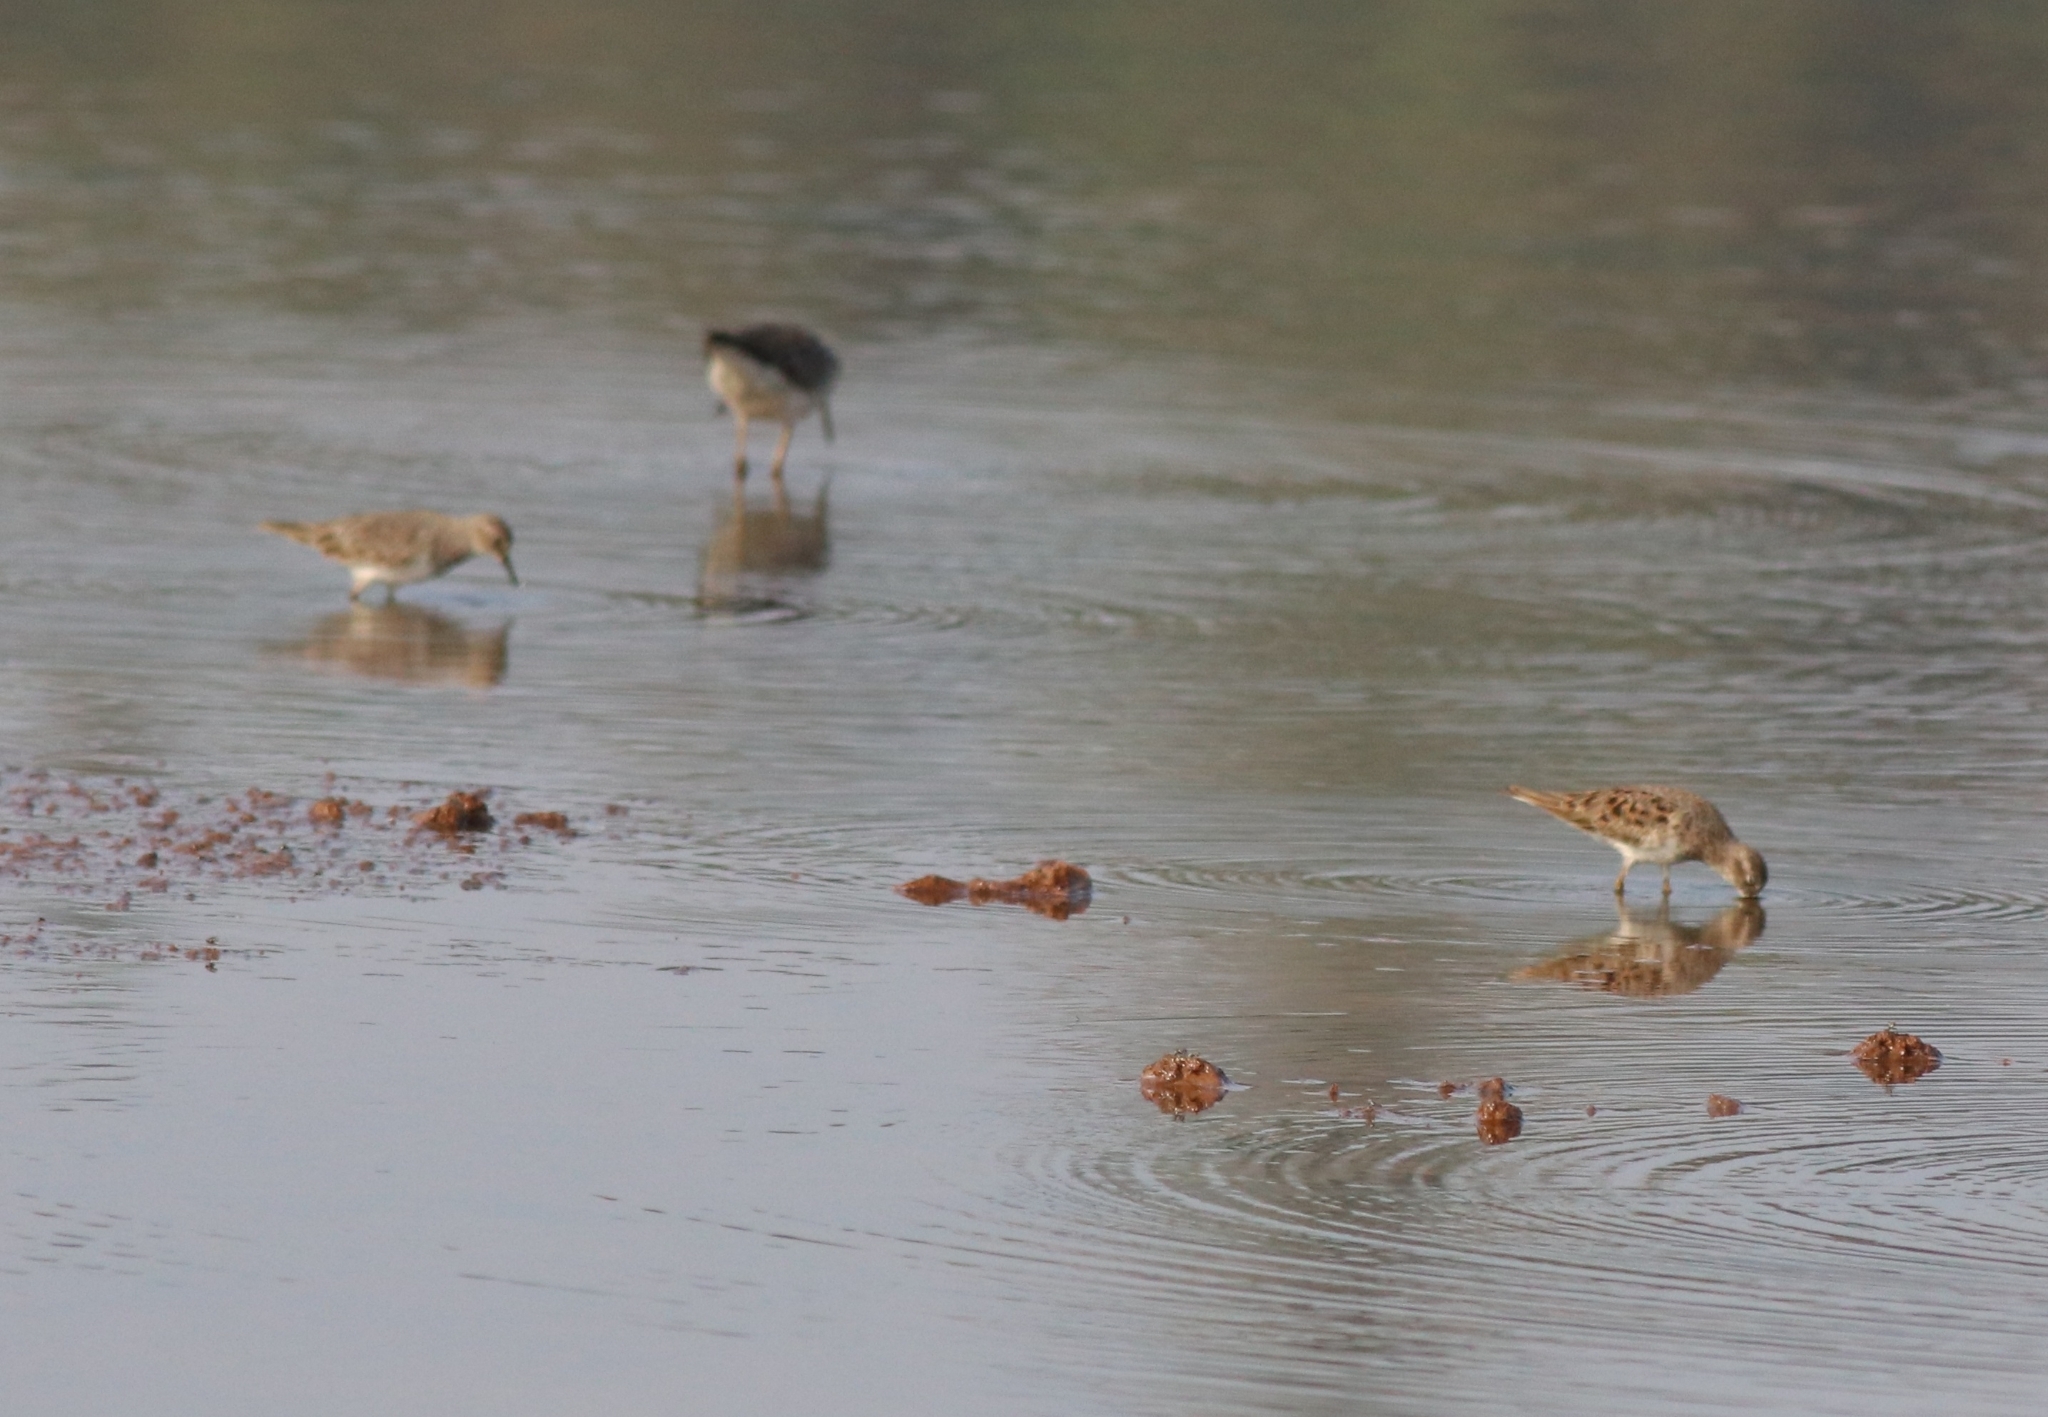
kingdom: Animalia
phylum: Chordata
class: Aves
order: Charadriiformes
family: Scolopacidae
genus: Calidris
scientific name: Calidris temminckii
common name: Temminck's stint
